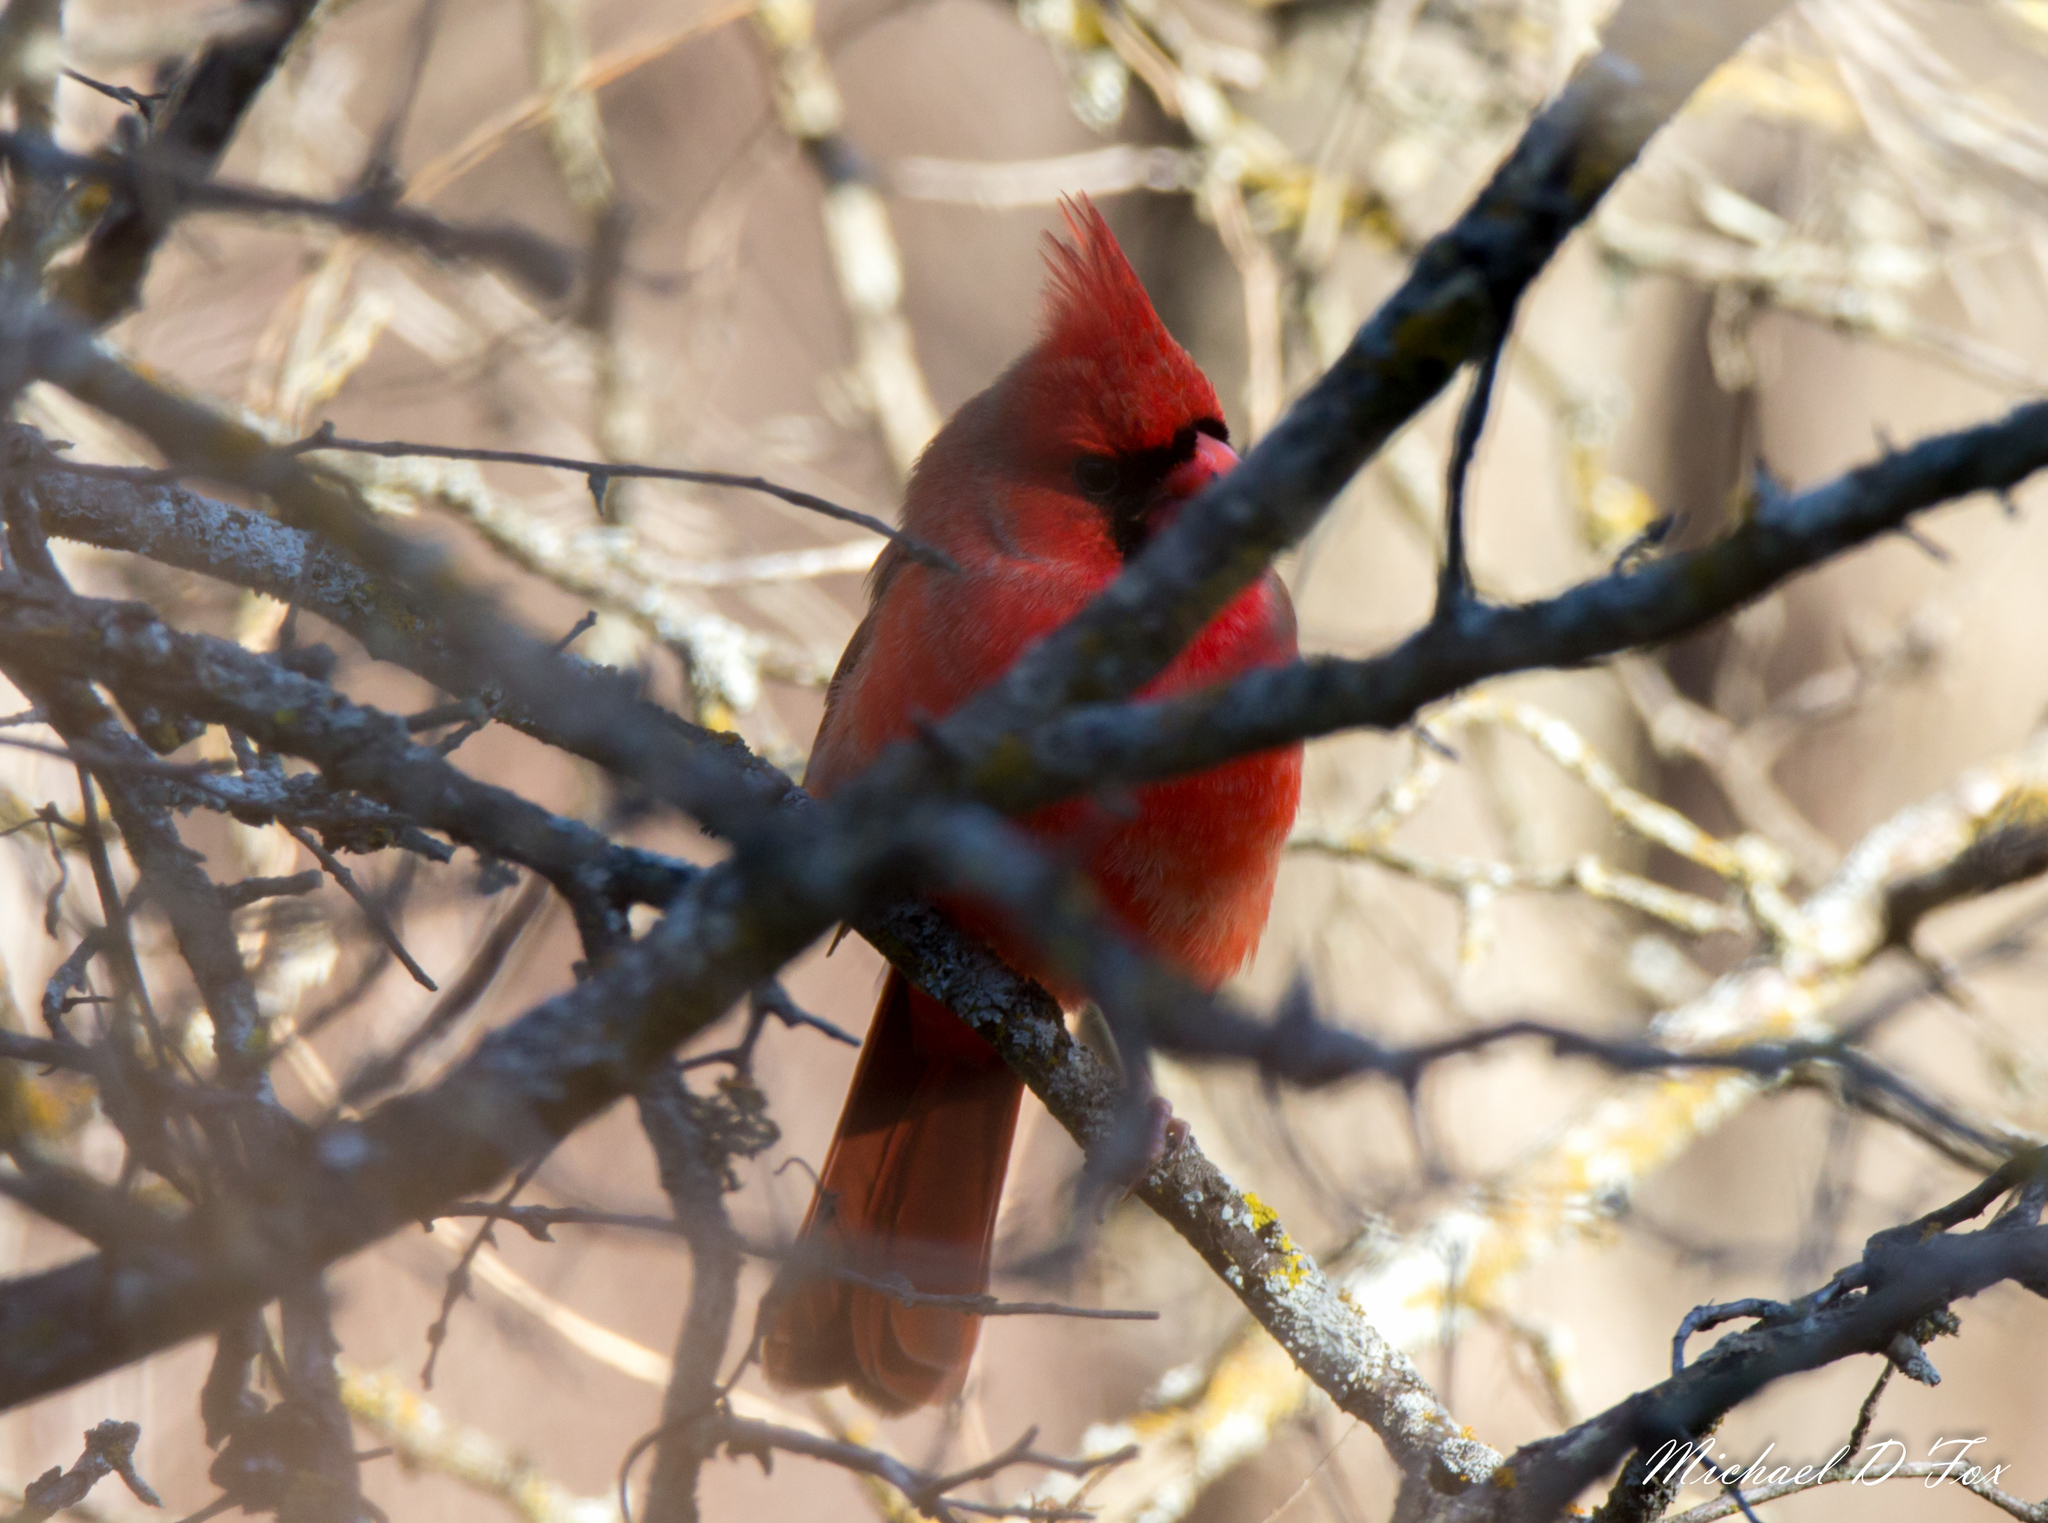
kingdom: Animalia
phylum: Chordata
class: Aves
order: Passeriformes
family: Cardinalidae
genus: Cardinalis
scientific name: Cardinalis cardinalis
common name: Northern cardinal
